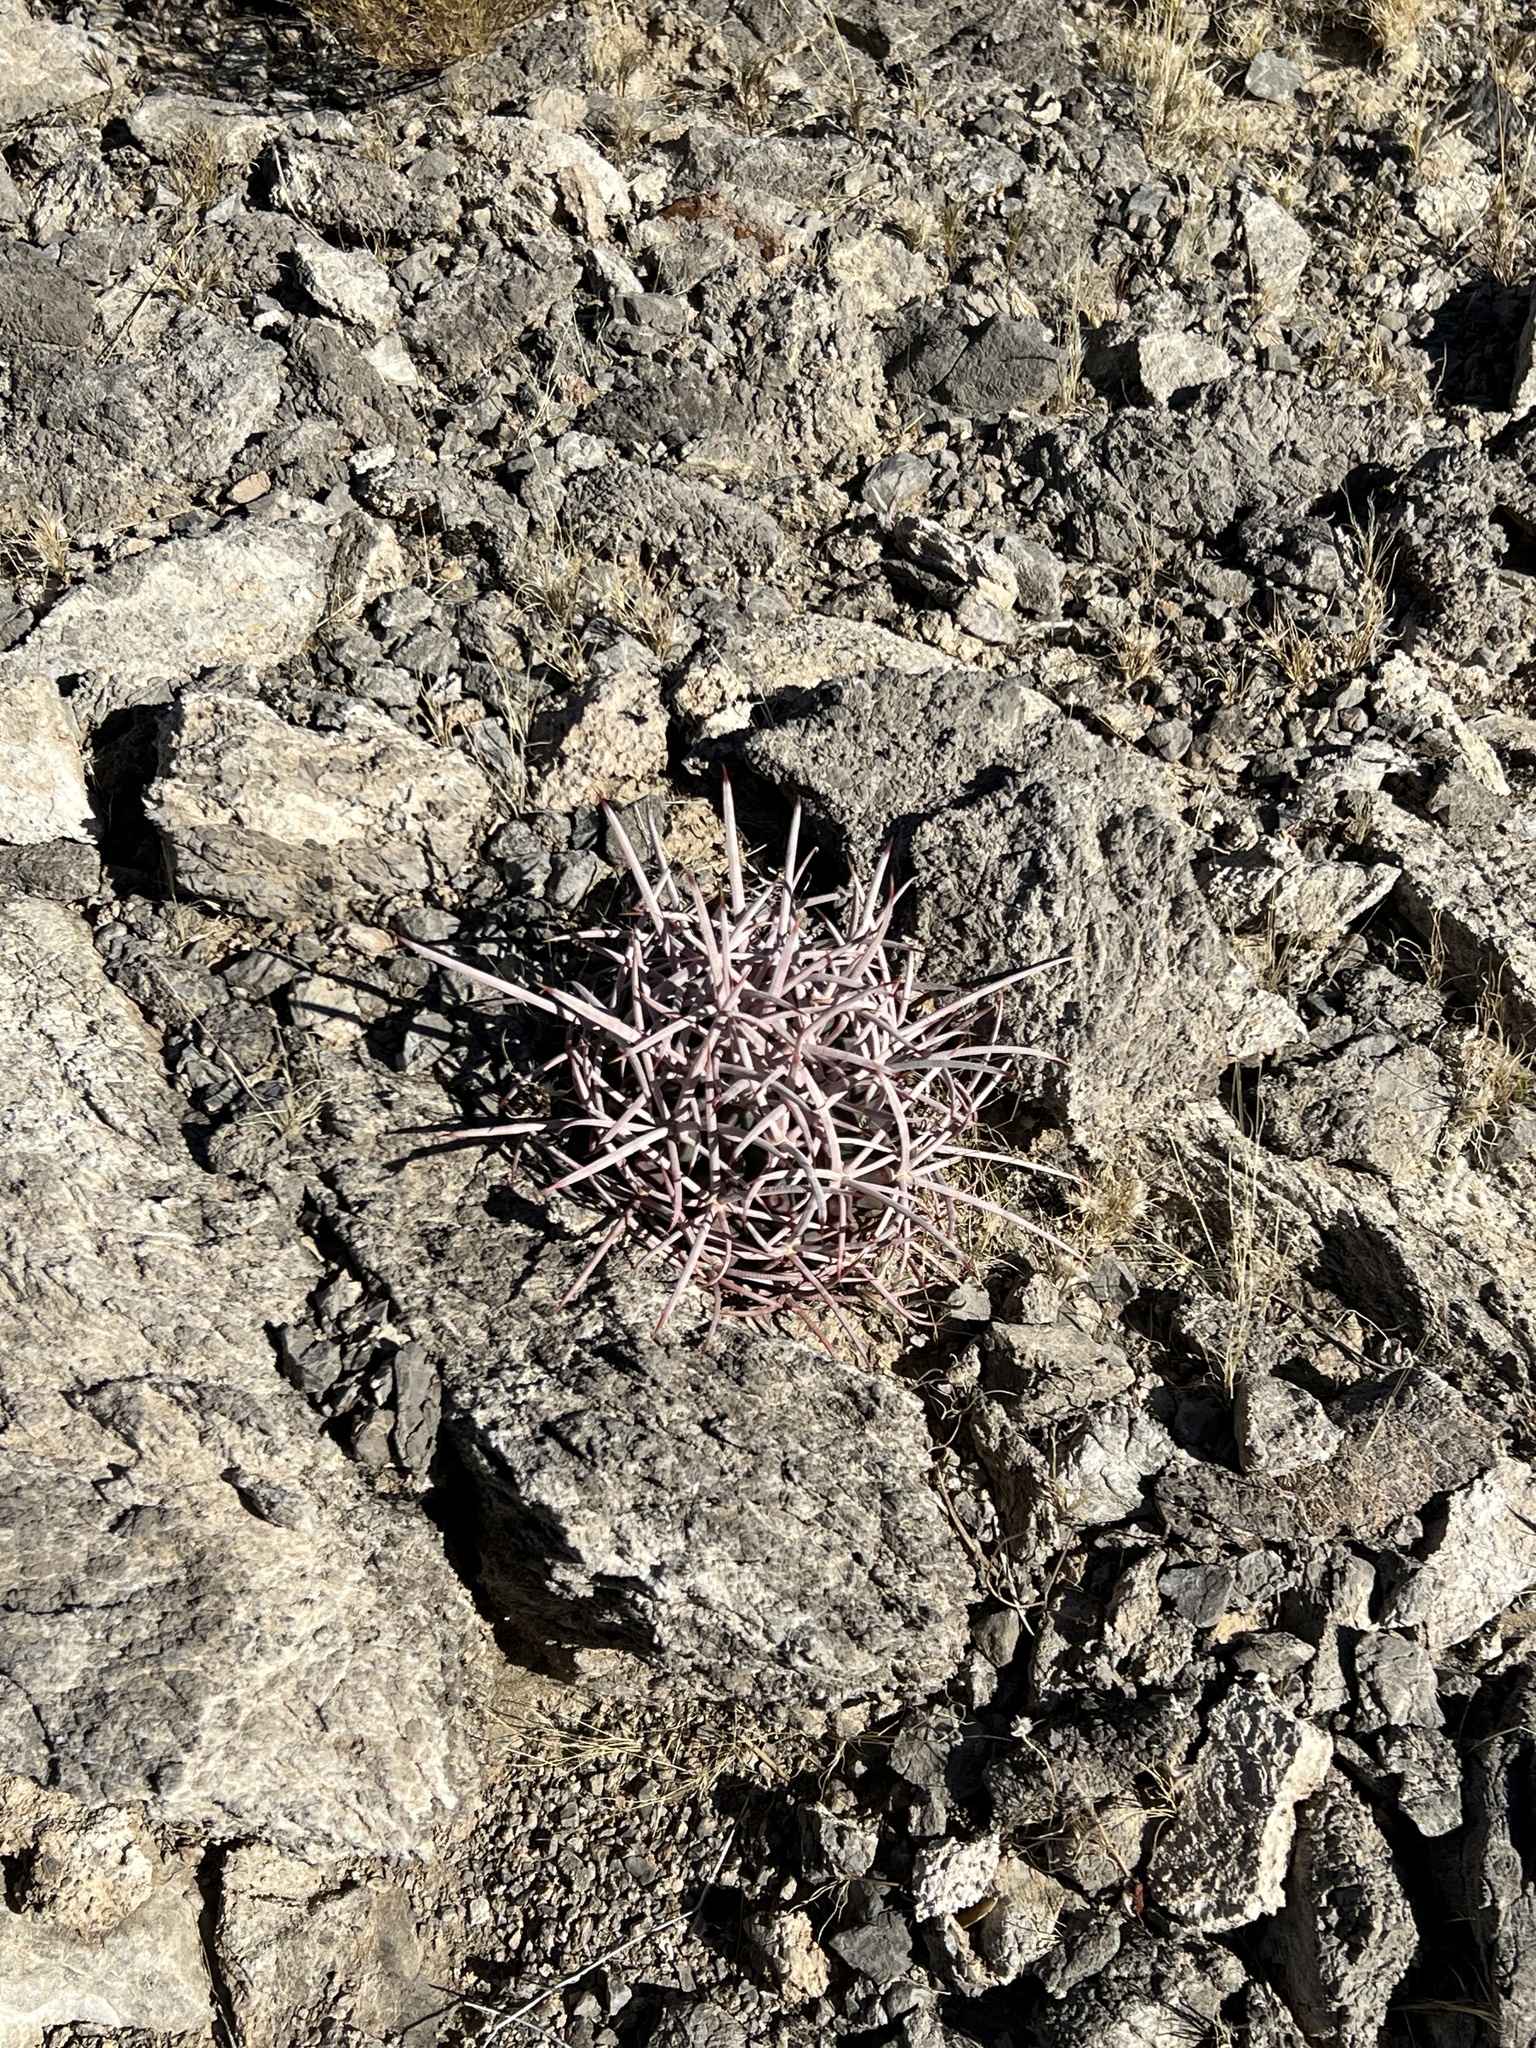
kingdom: Plantae
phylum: Tracheophyta
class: Magnoliopsida
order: Caryophyllales
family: Cactaceae
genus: Echinocactus
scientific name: Echinocactus polycephalus
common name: Cottontop cactus
